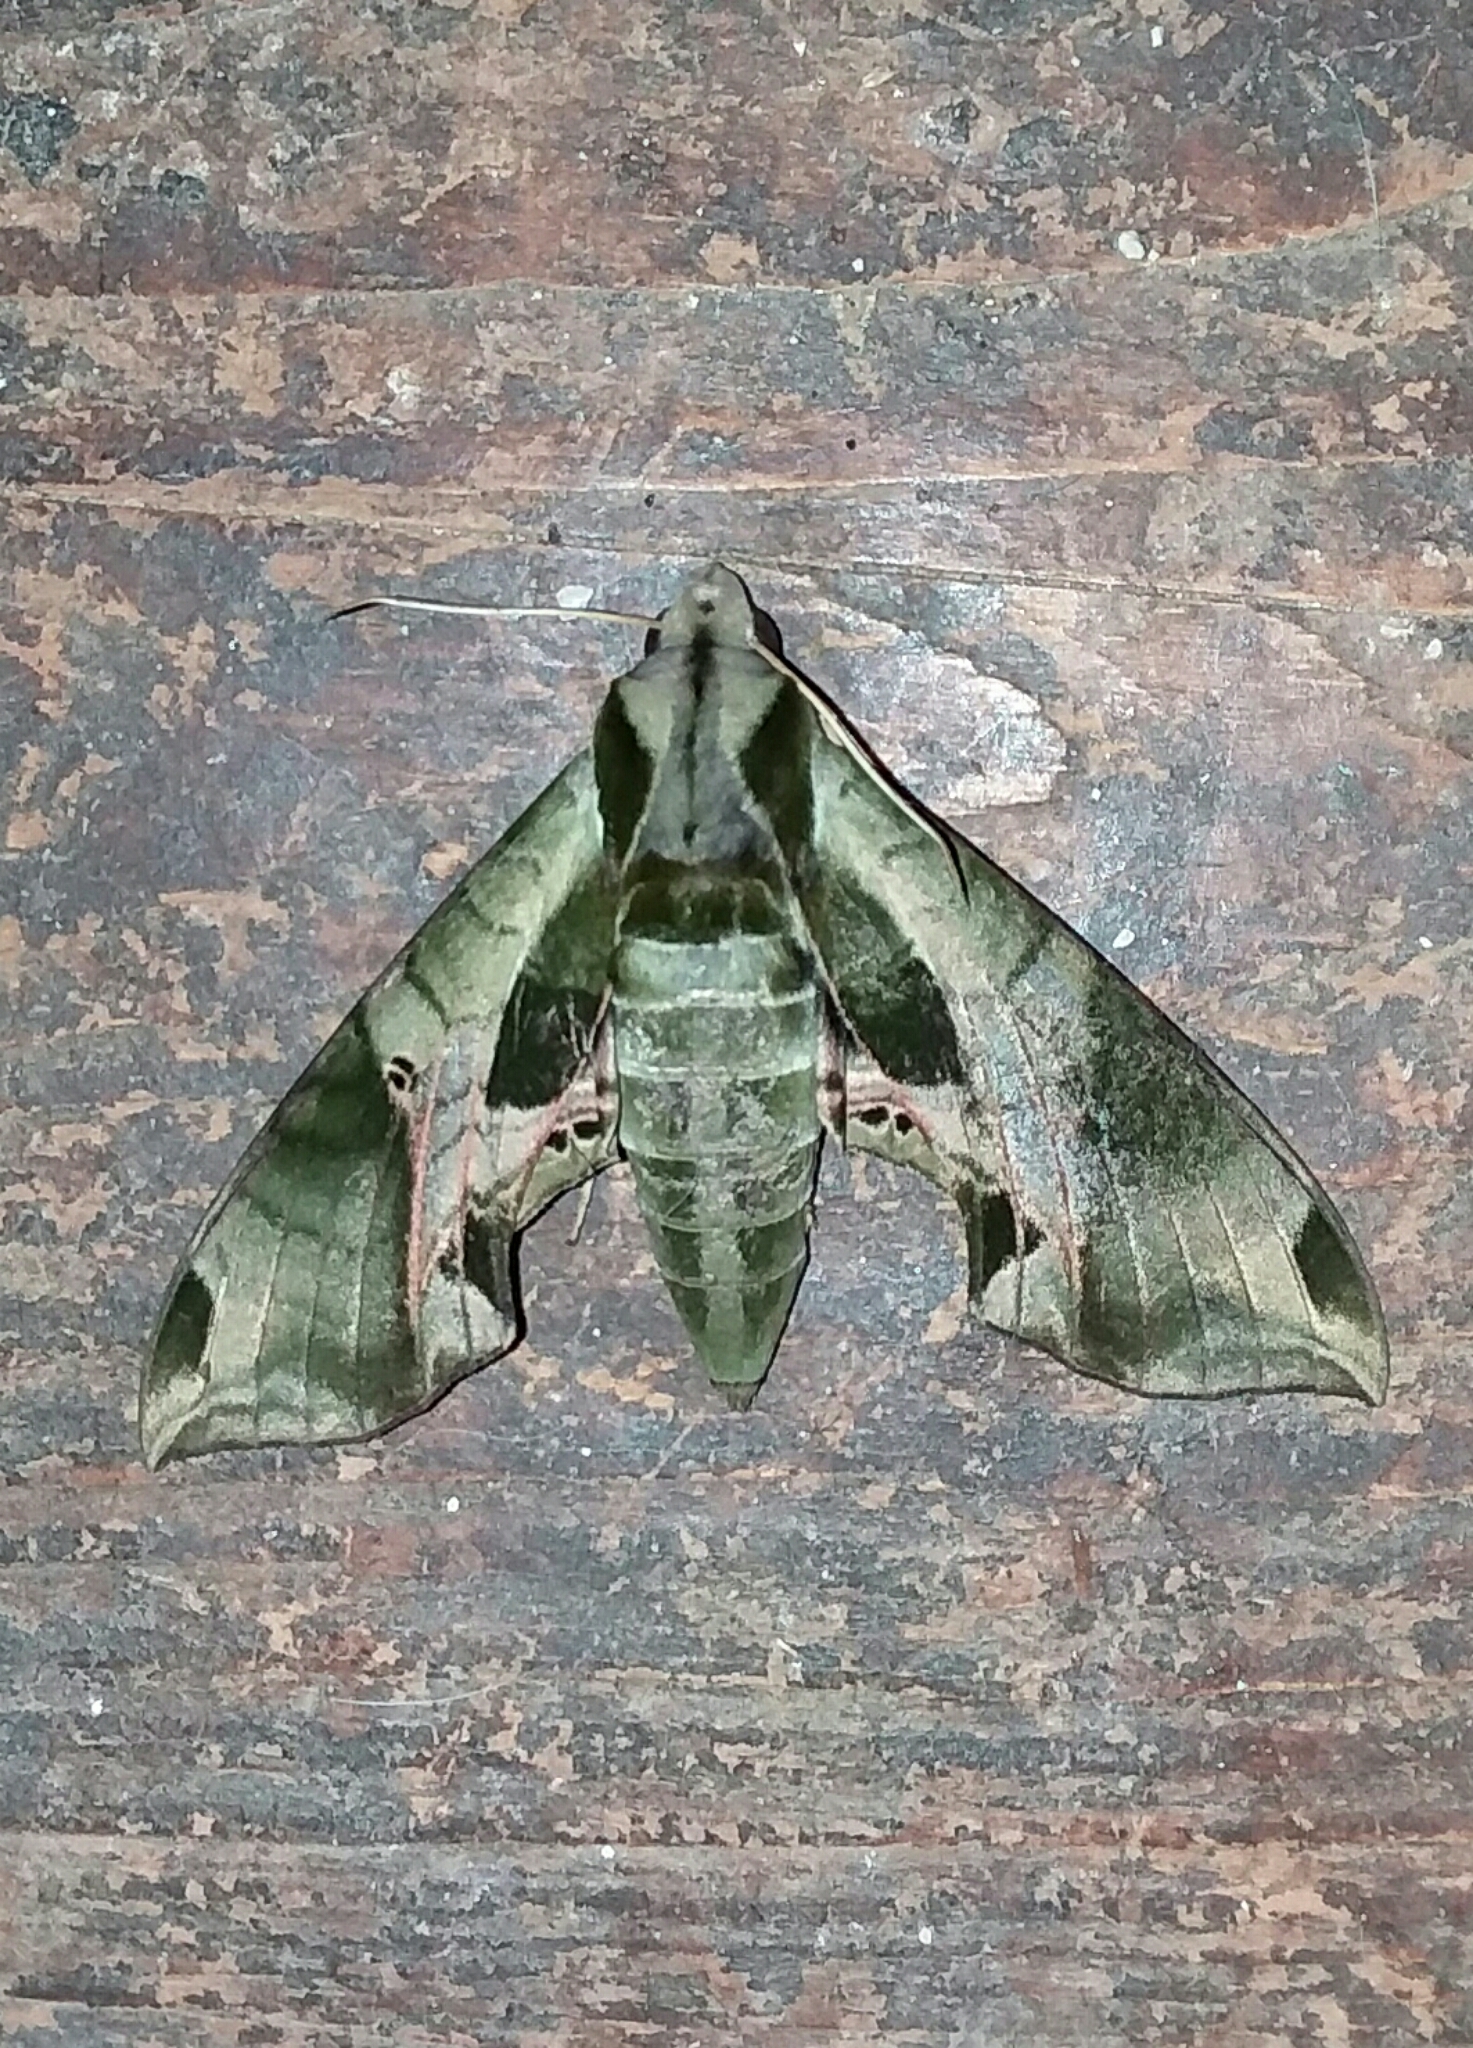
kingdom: Animalia
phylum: Arthropoda
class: Insecta
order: Lepidoptera
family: Sphingidae
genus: Eumorpha
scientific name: Eumorpha pandorus
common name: Pandora sphinx
